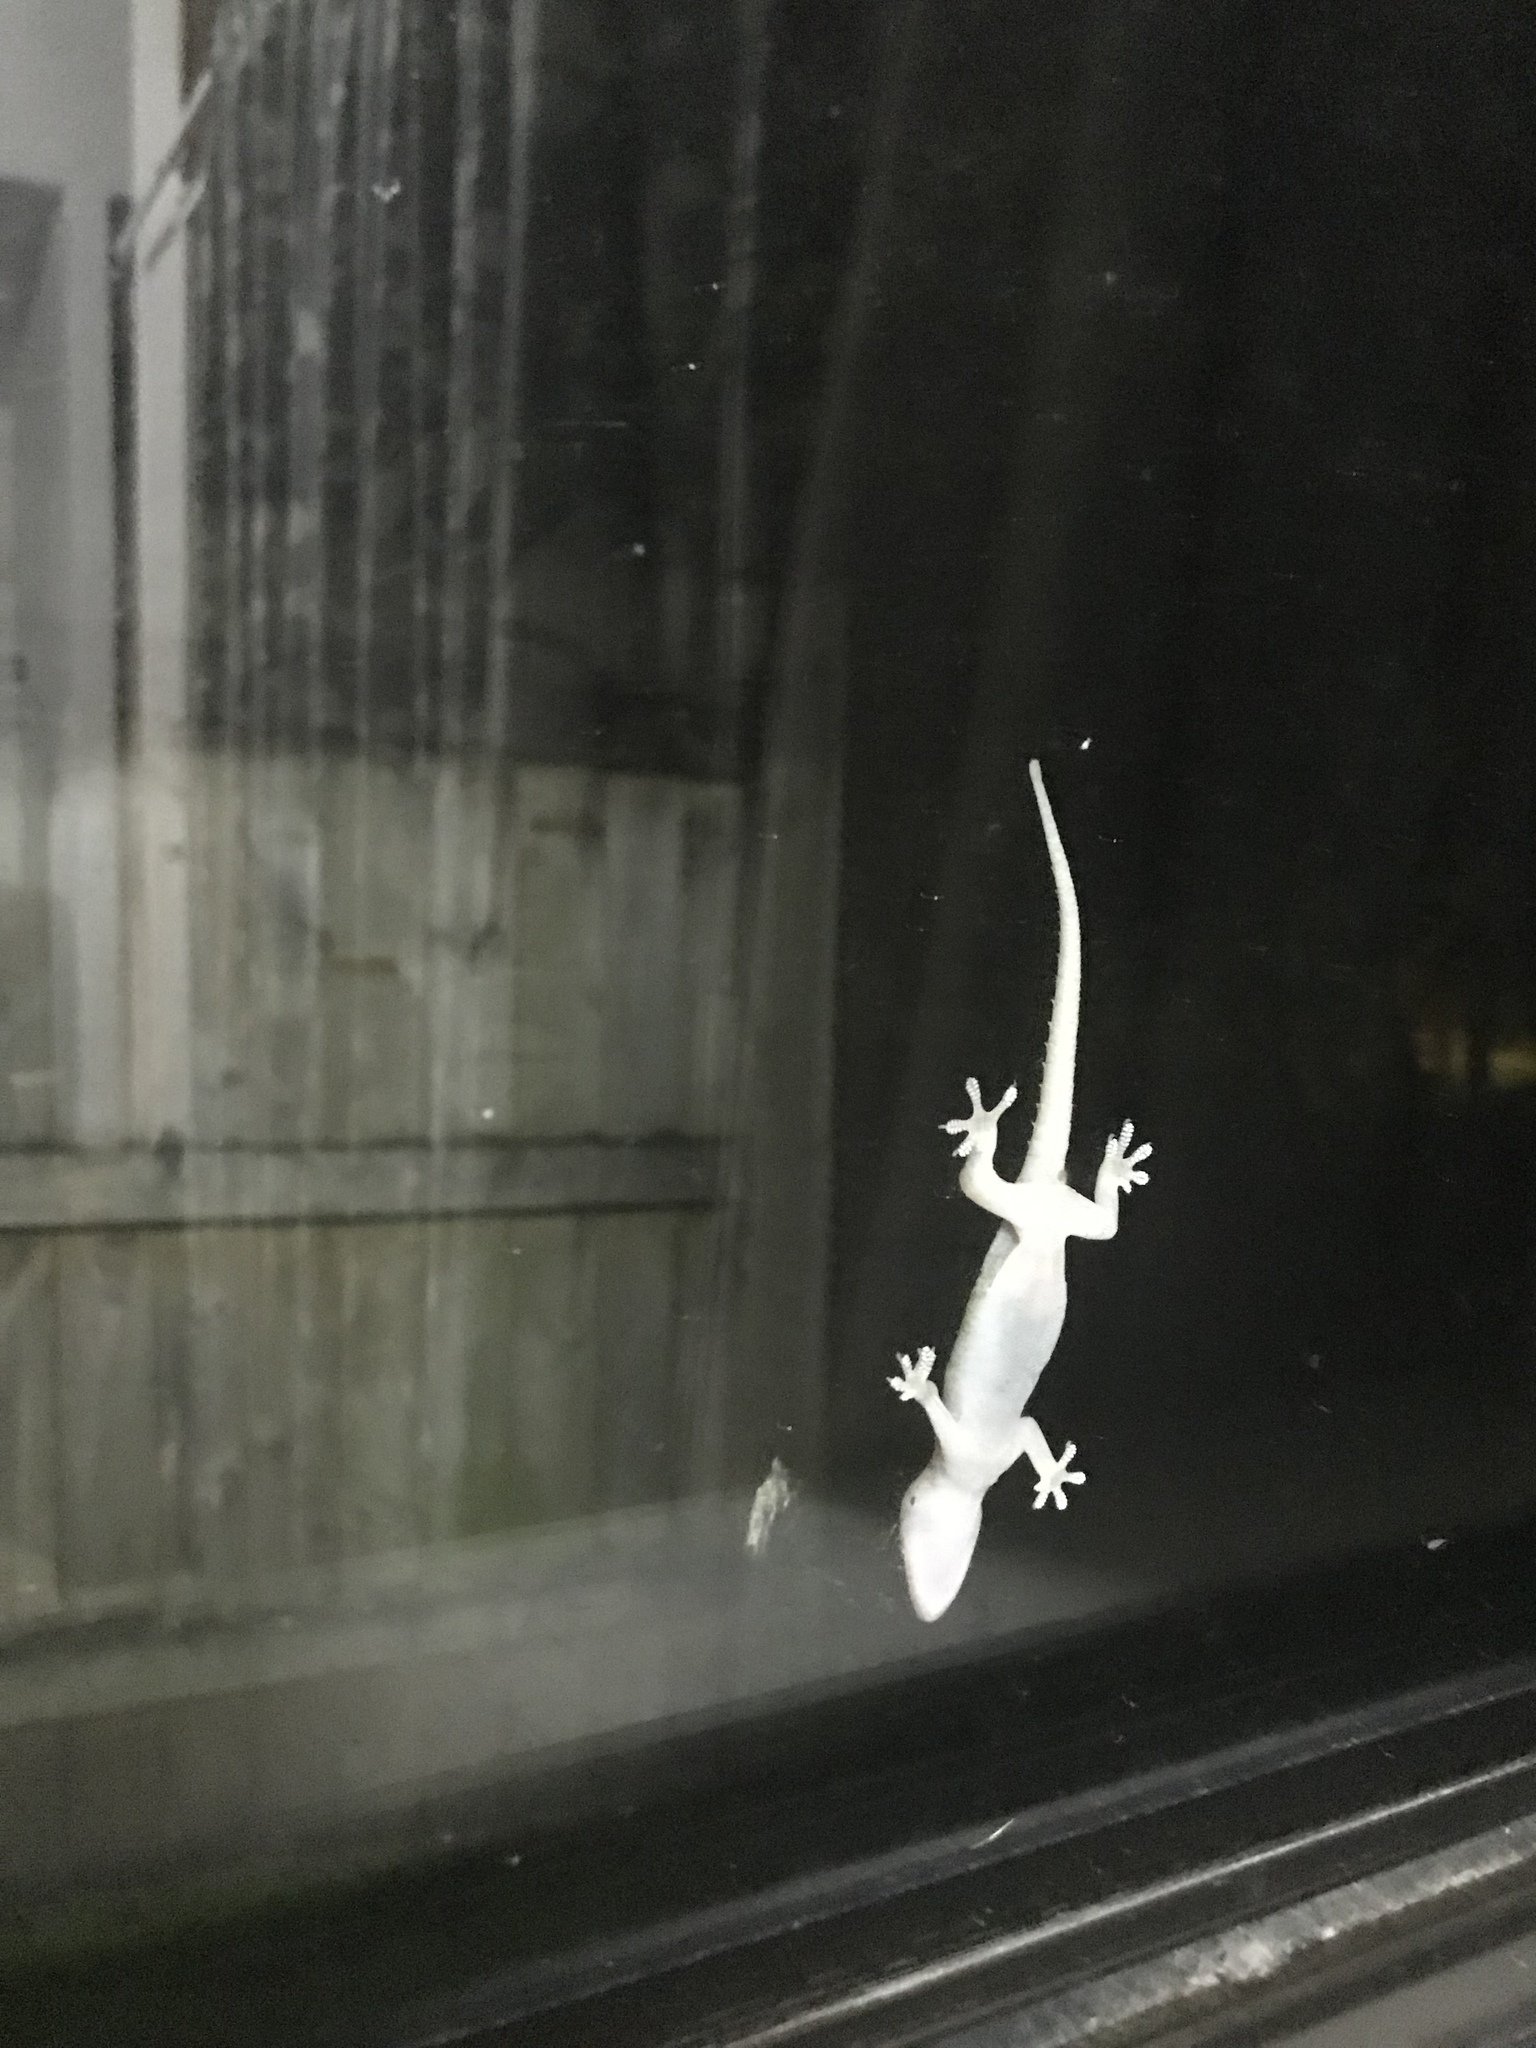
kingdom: Animalia
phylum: Chordata
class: Squamata
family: Gekkonidae
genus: Hemidactylus
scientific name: Hemidactylus frenatus
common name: Common house gecko
